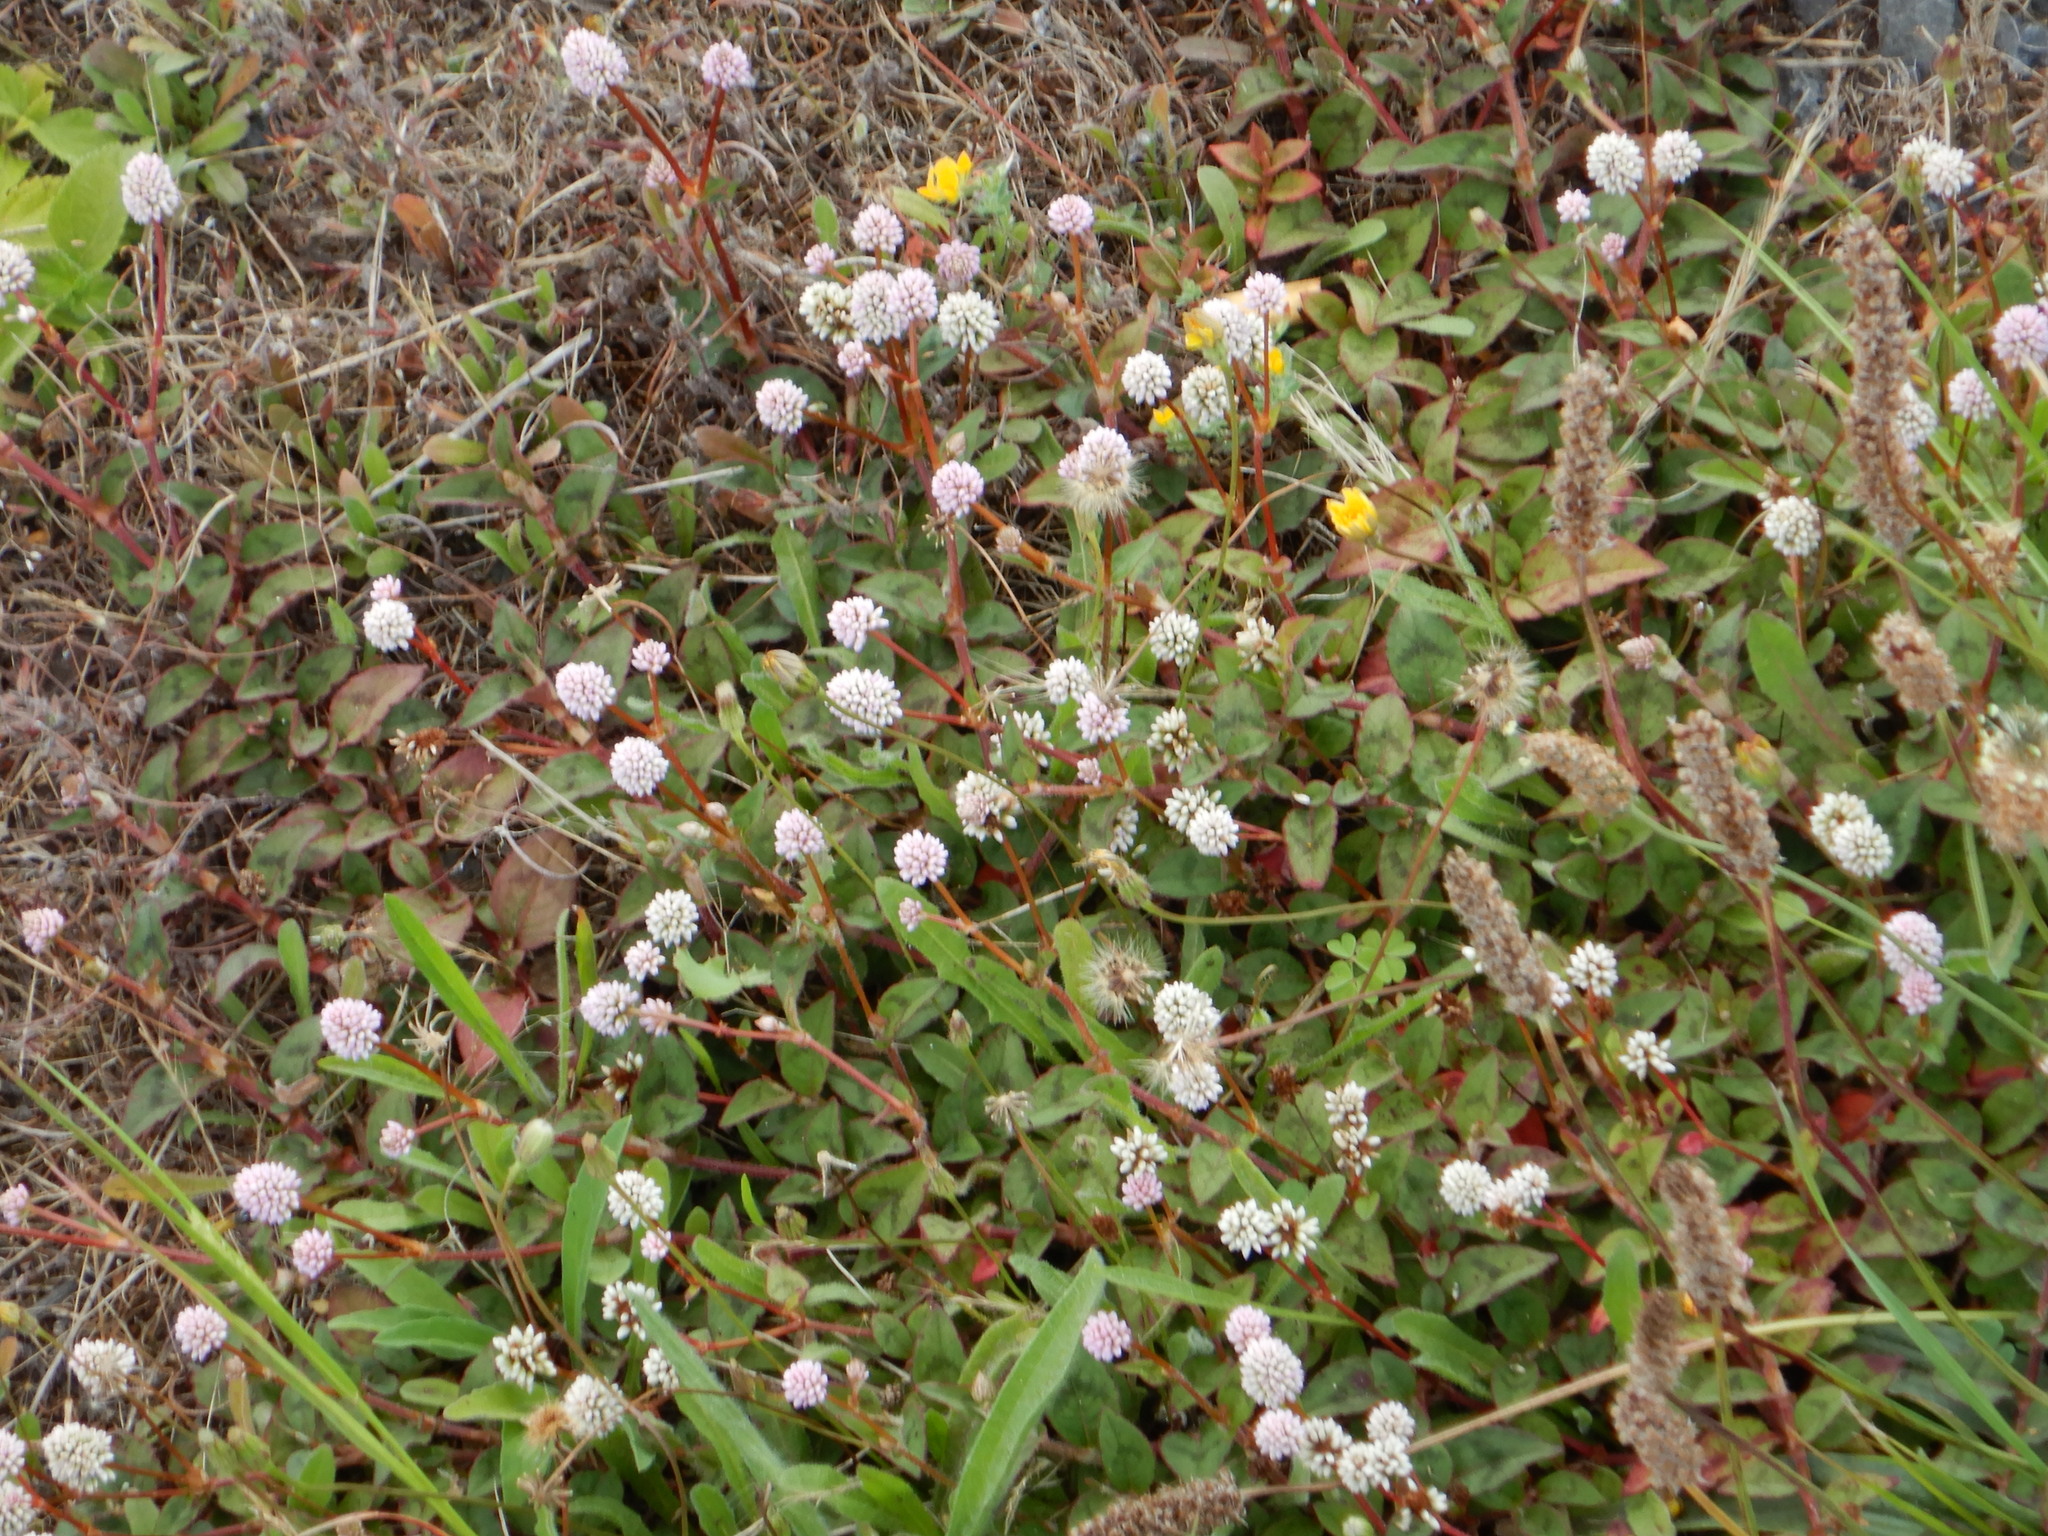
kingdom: Plantae
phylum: Tracheophyta
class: Magnoliopsida
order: Caryophyllales
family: Polygonaceae
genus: Persicaria
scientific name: Persicaria capitata
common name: Pinkhead smartweed
